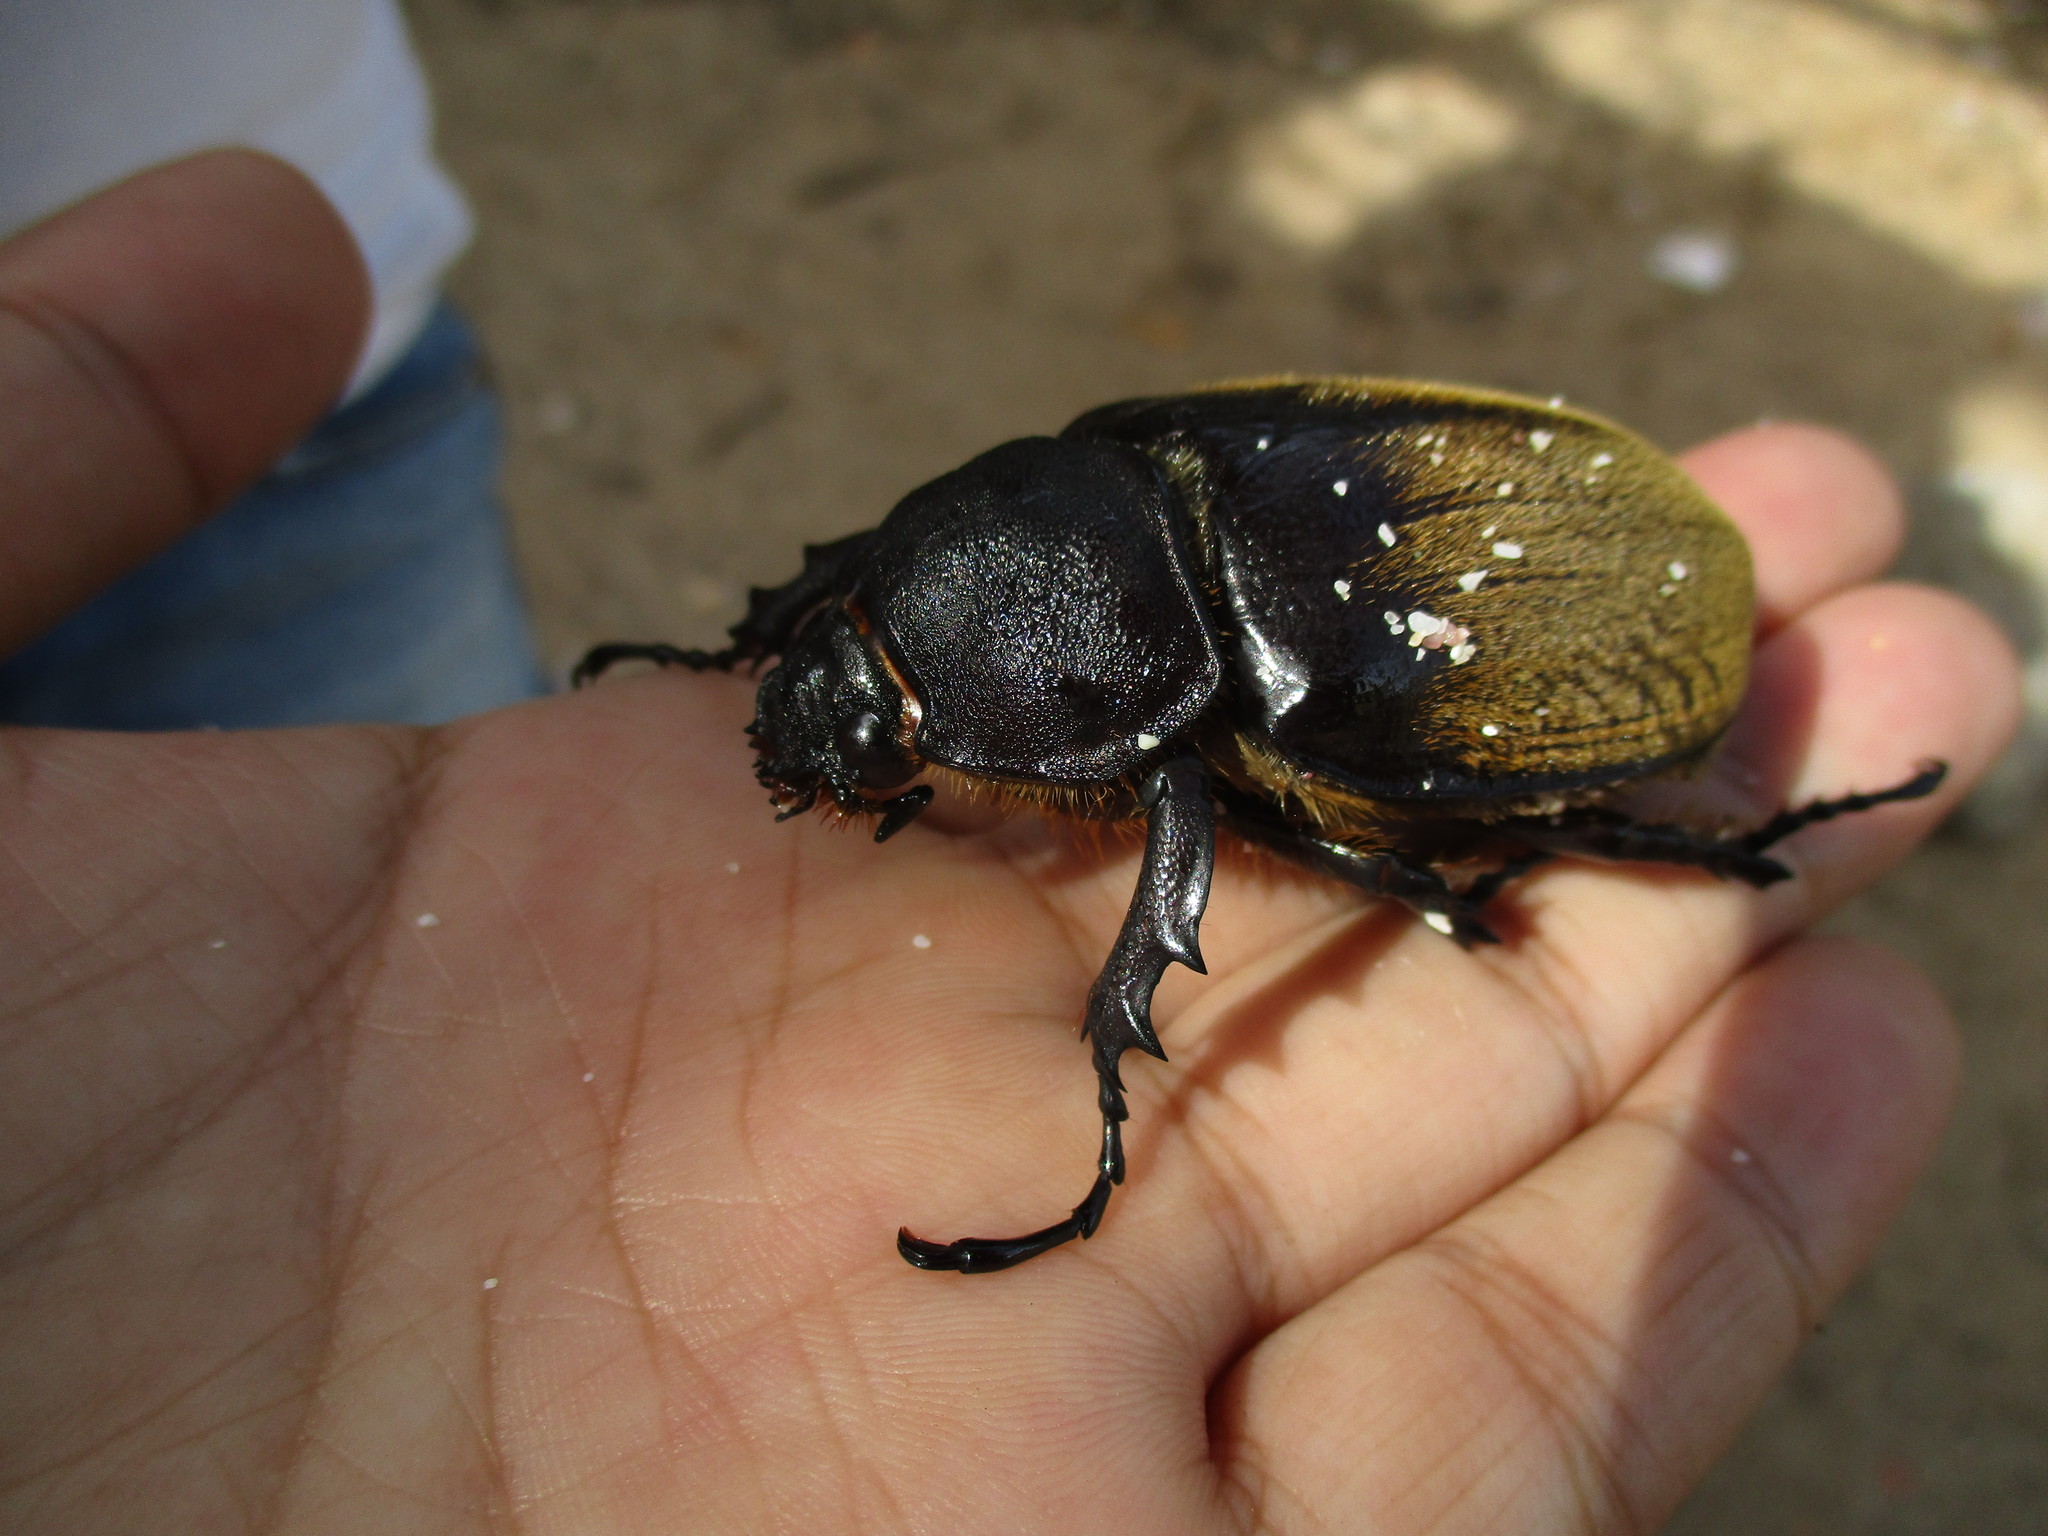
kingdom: Animalia
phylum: Arthropoda
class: Insecta
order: Coleoptera
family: Scarabaeidae
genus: Megasoma
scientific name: Megasoma occidentale
